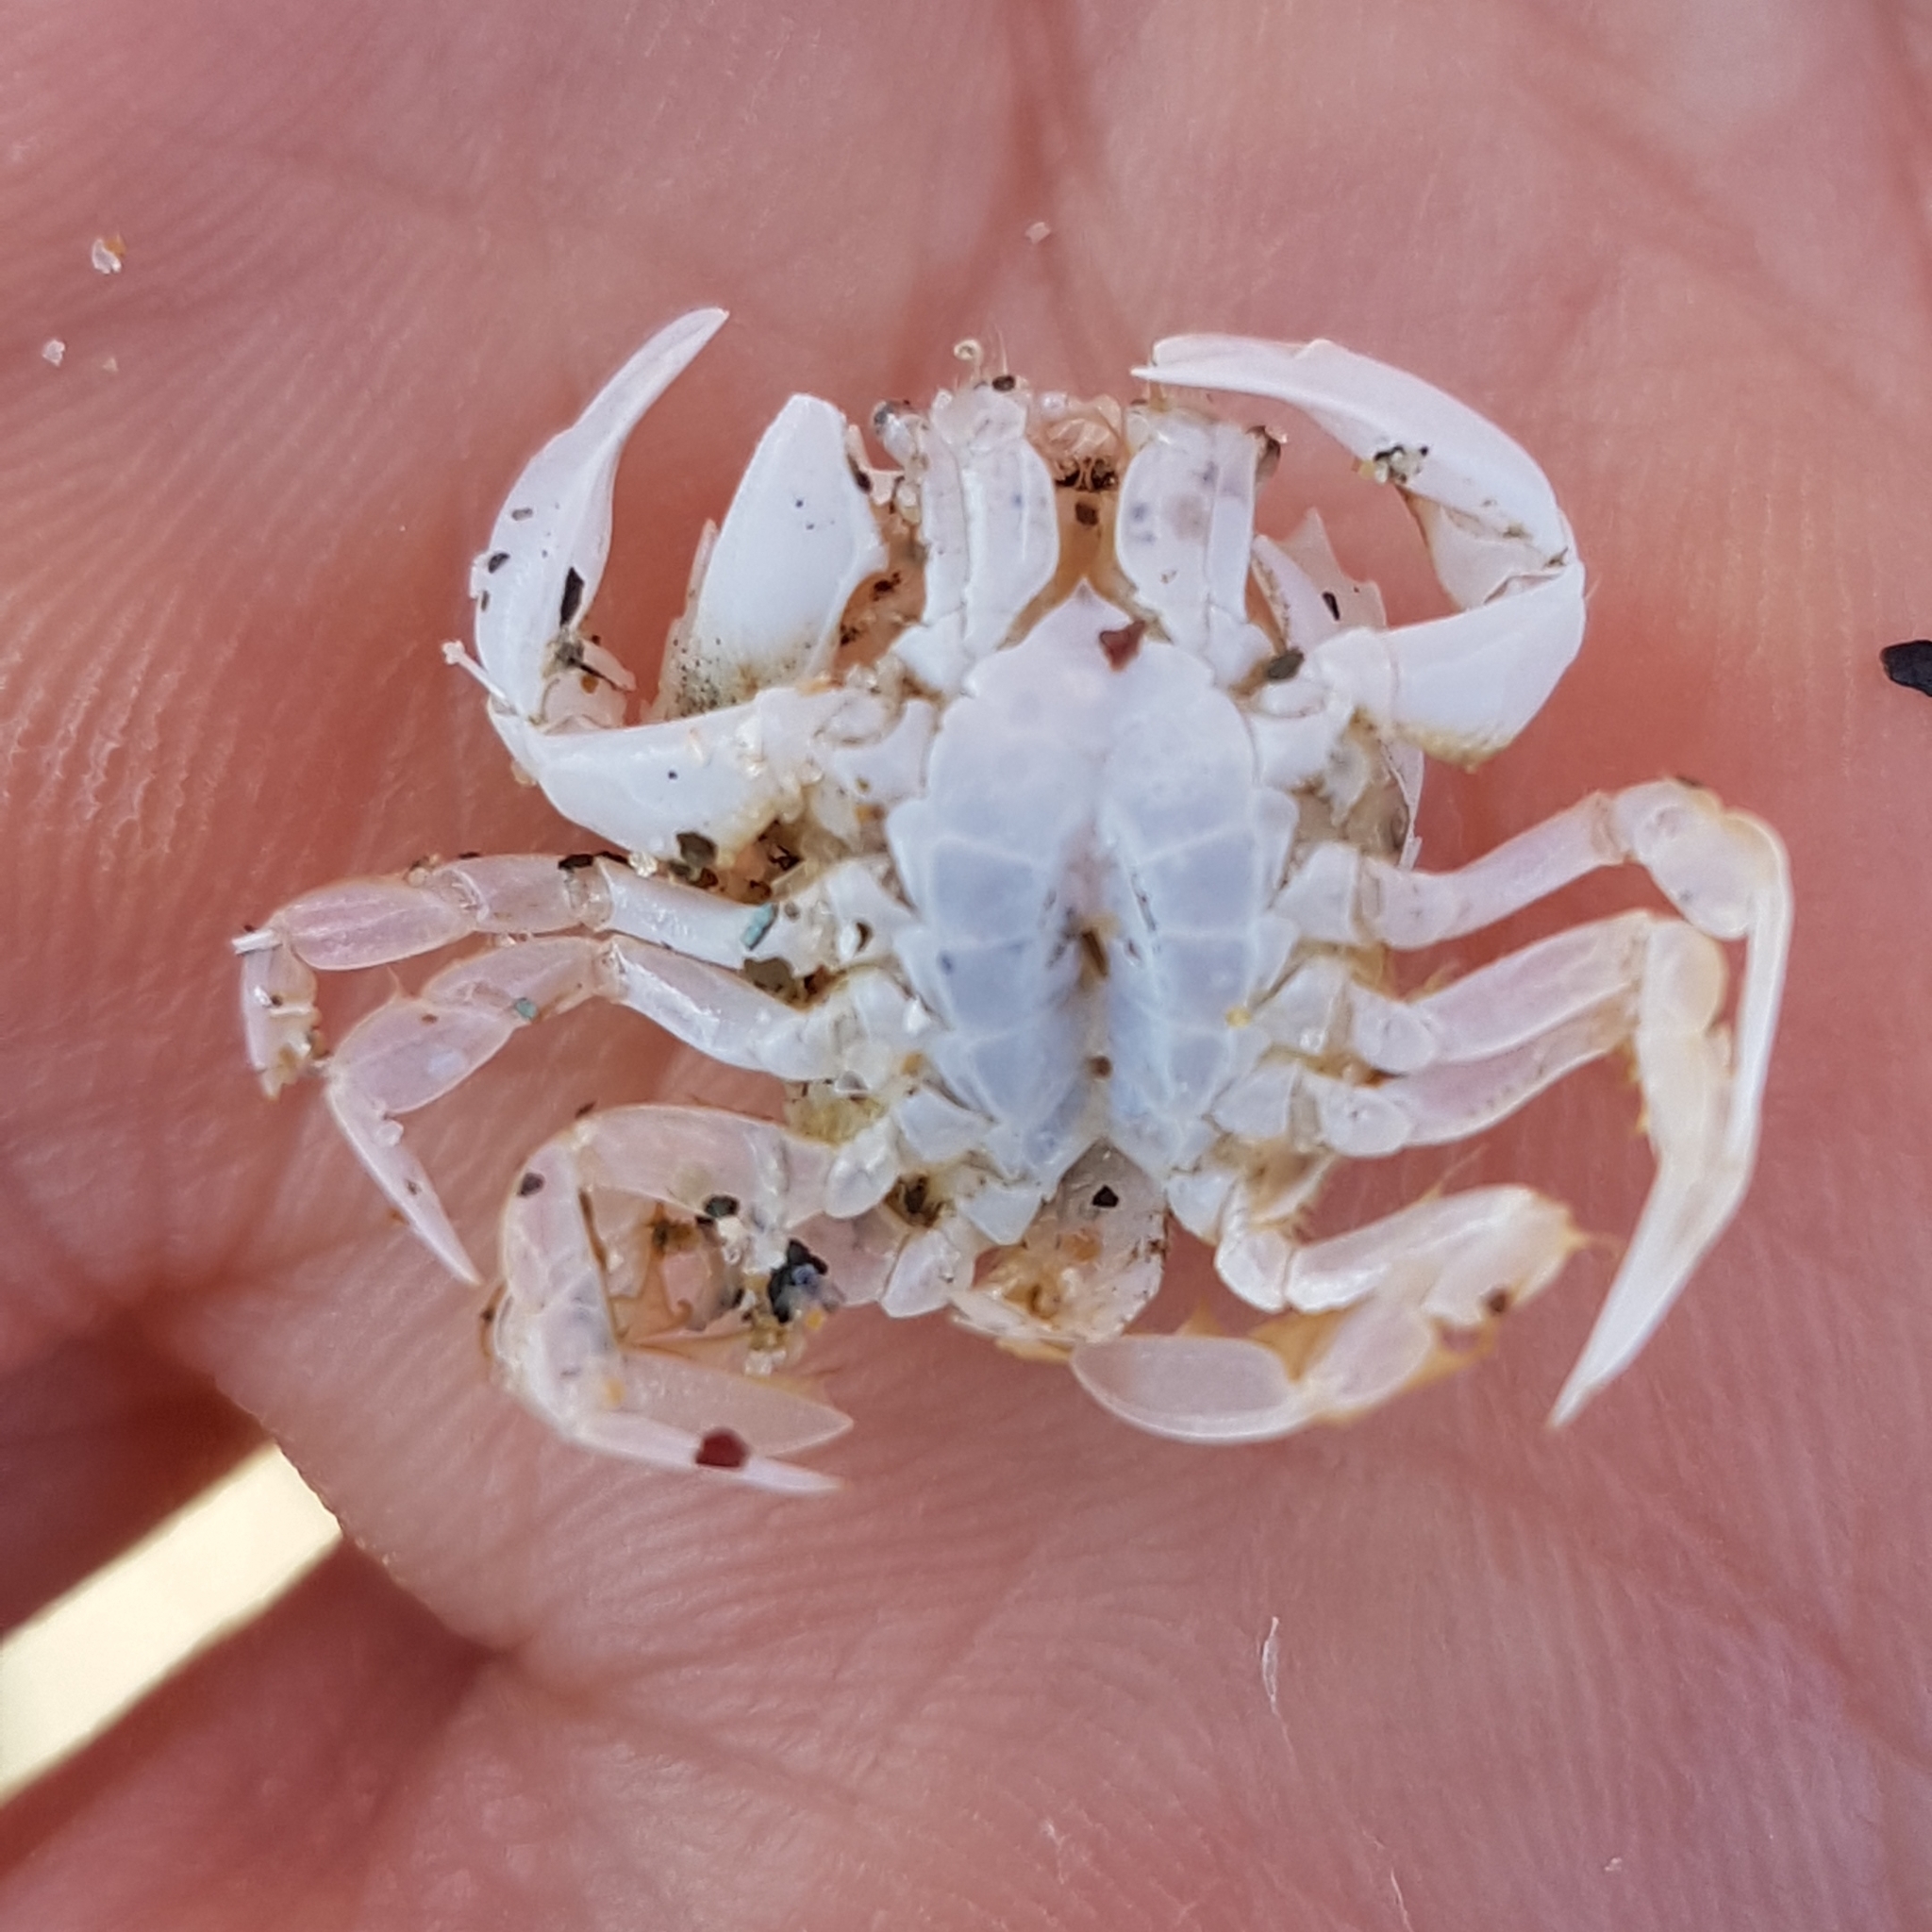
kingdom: Animalia
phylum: Arthropoda
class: Malacostraca
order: Decapoda
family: Carcinidae
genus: Portumnus
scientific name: Portumnus latipes
